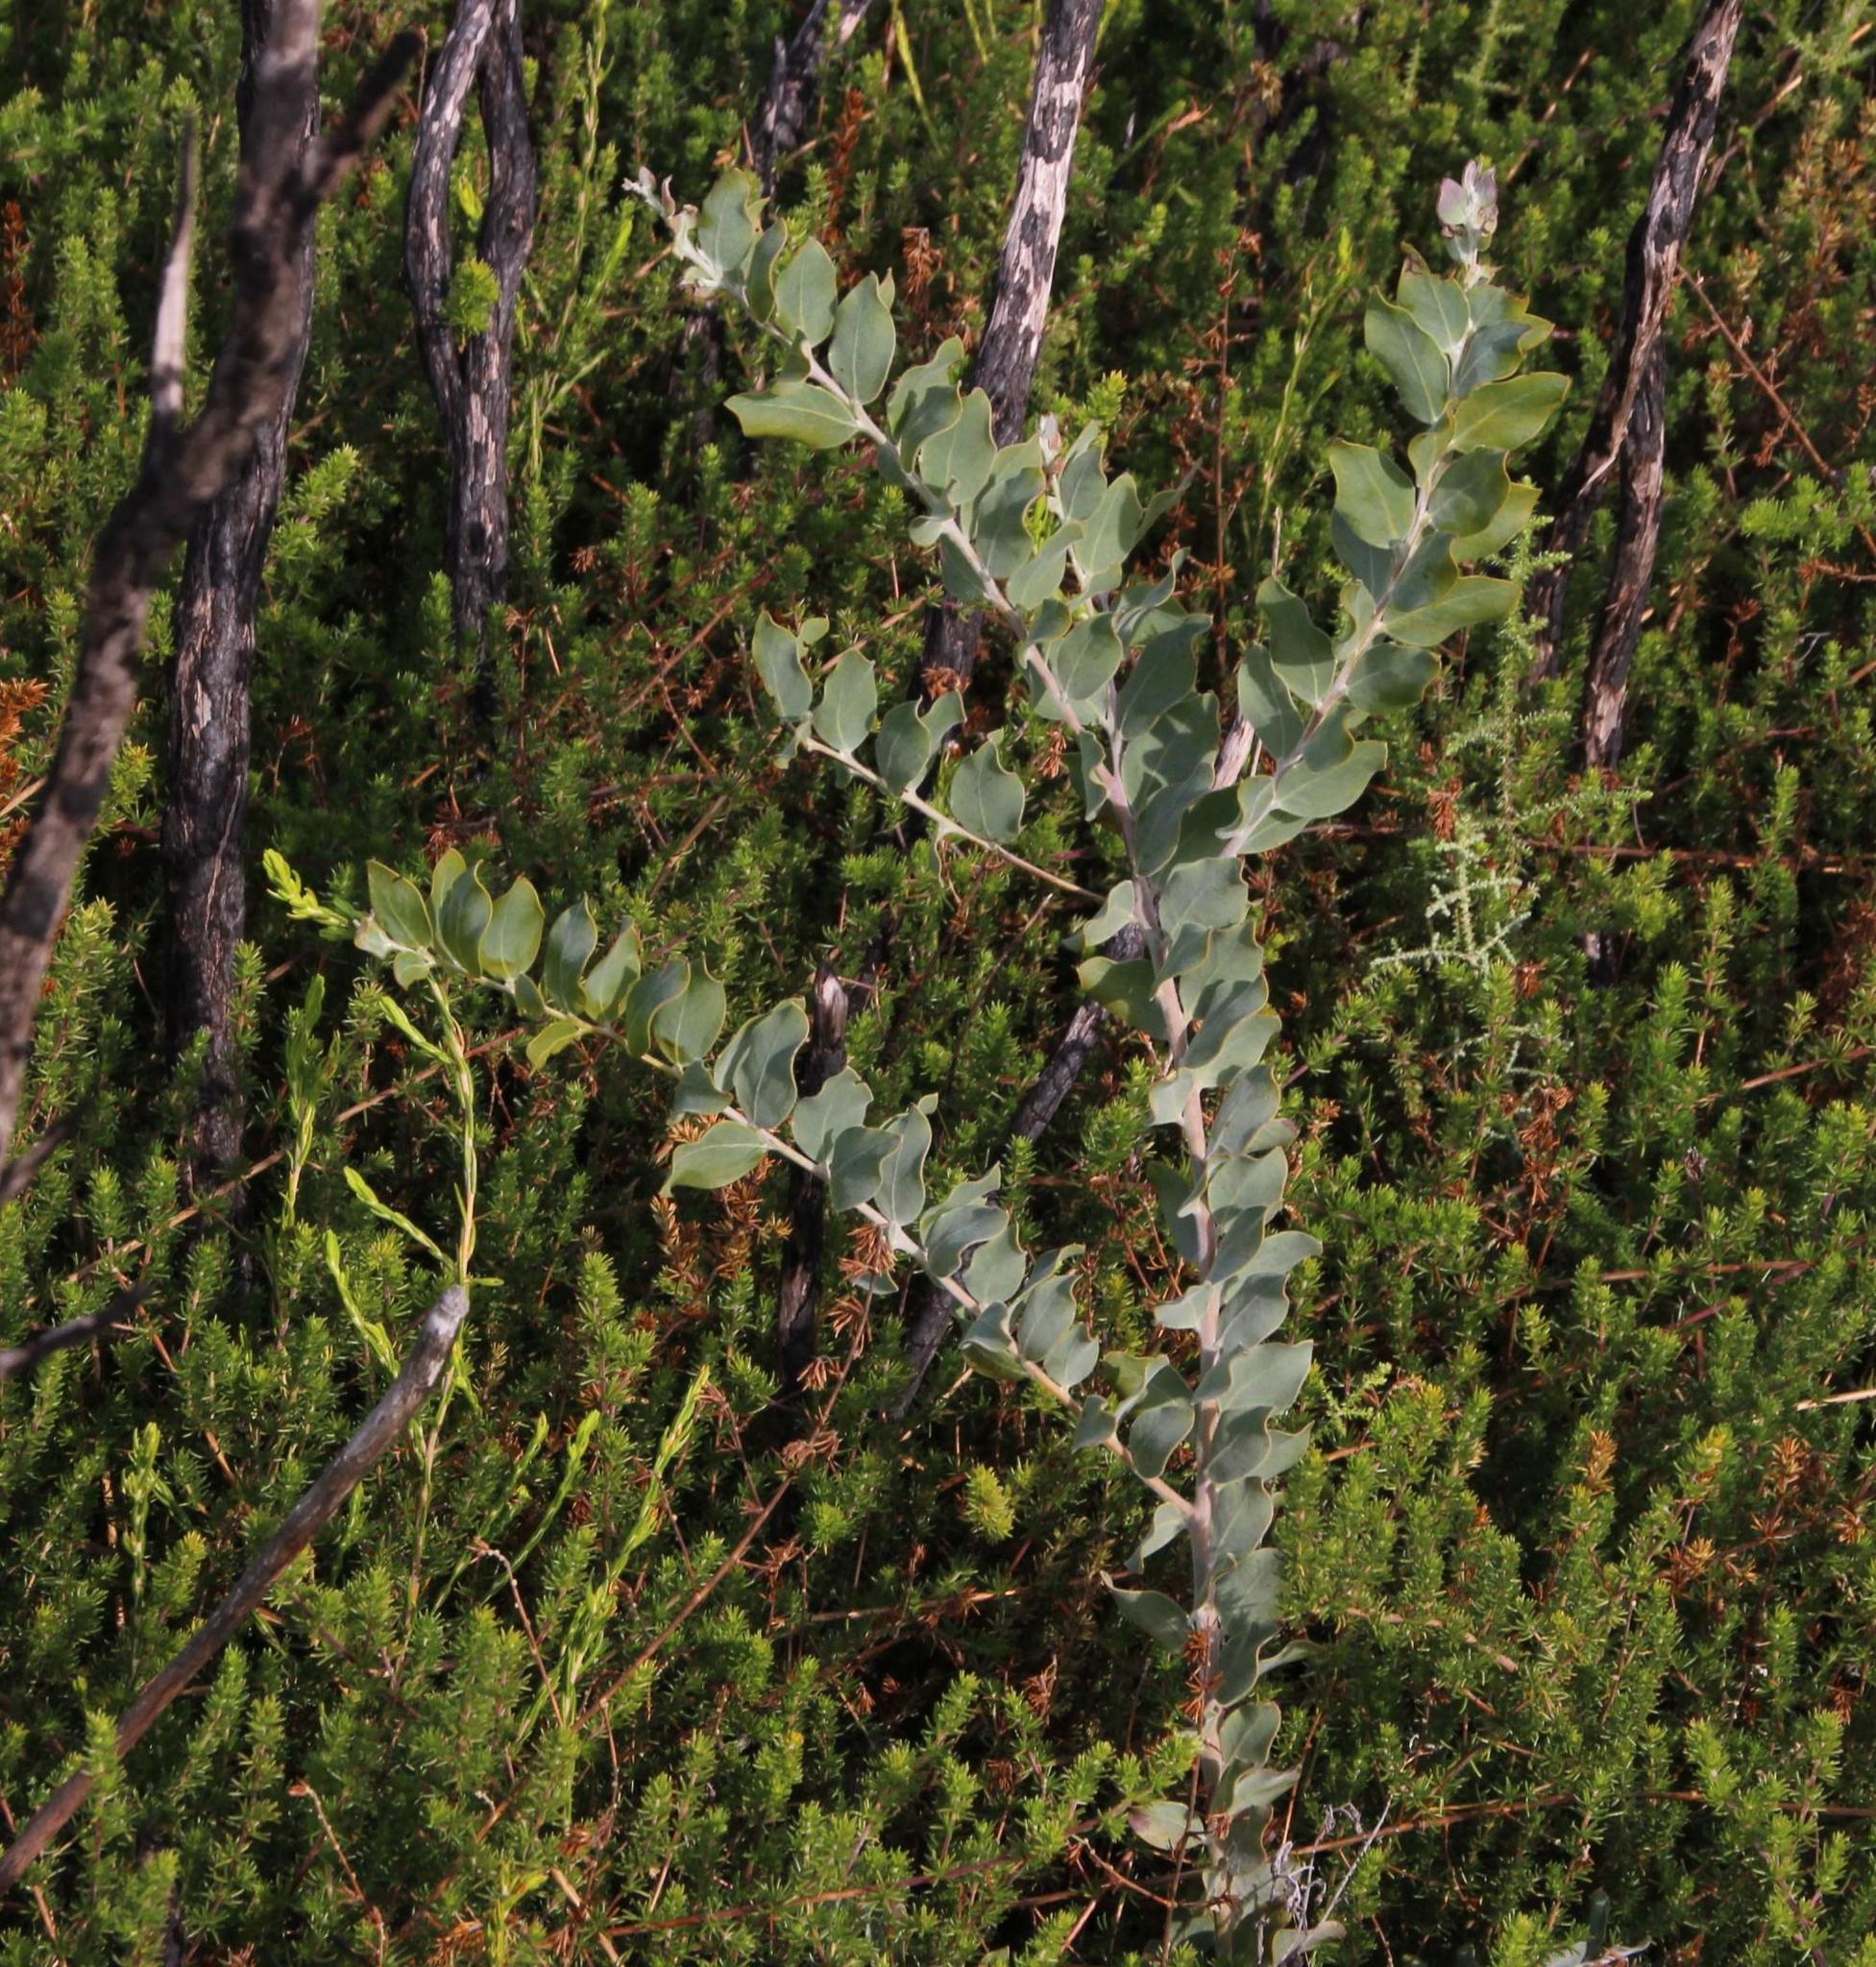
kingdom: Plantae
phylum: Tracheophyta
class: Magnoliopsida
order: Fabales
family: Fabaceae
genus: Acacia
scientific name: Acacia podalyriifolia
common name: Pearl wattle
